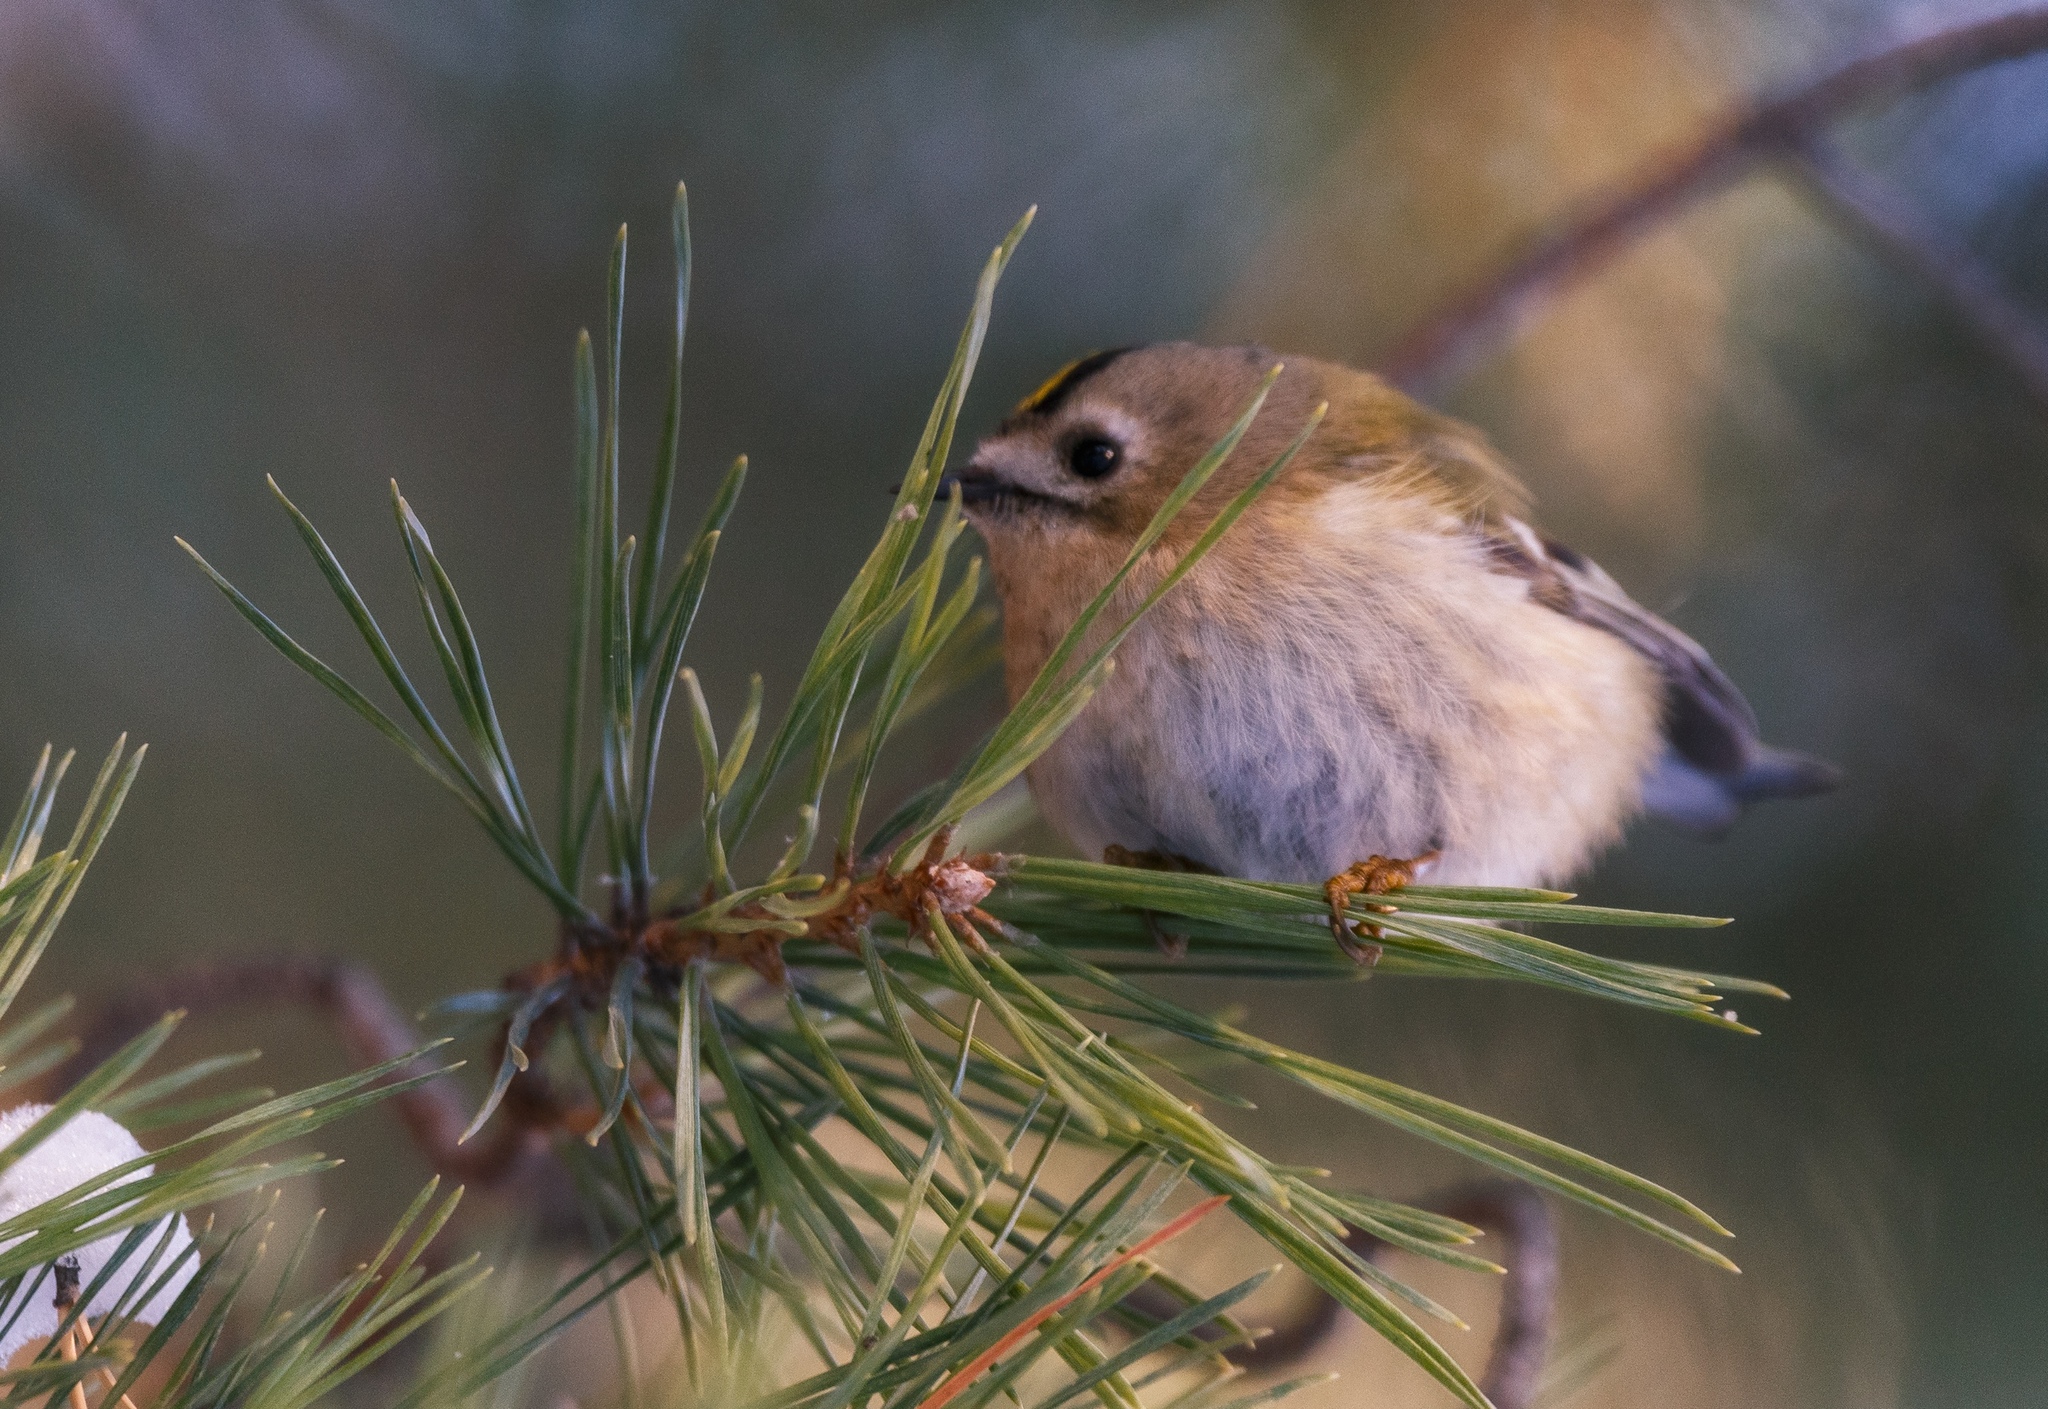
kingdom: Animalia
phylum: Chordata
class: Aves
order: Passeriformes
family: Regulidae
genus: Regulus
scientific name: Regulus regulus
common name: Goldcrest
